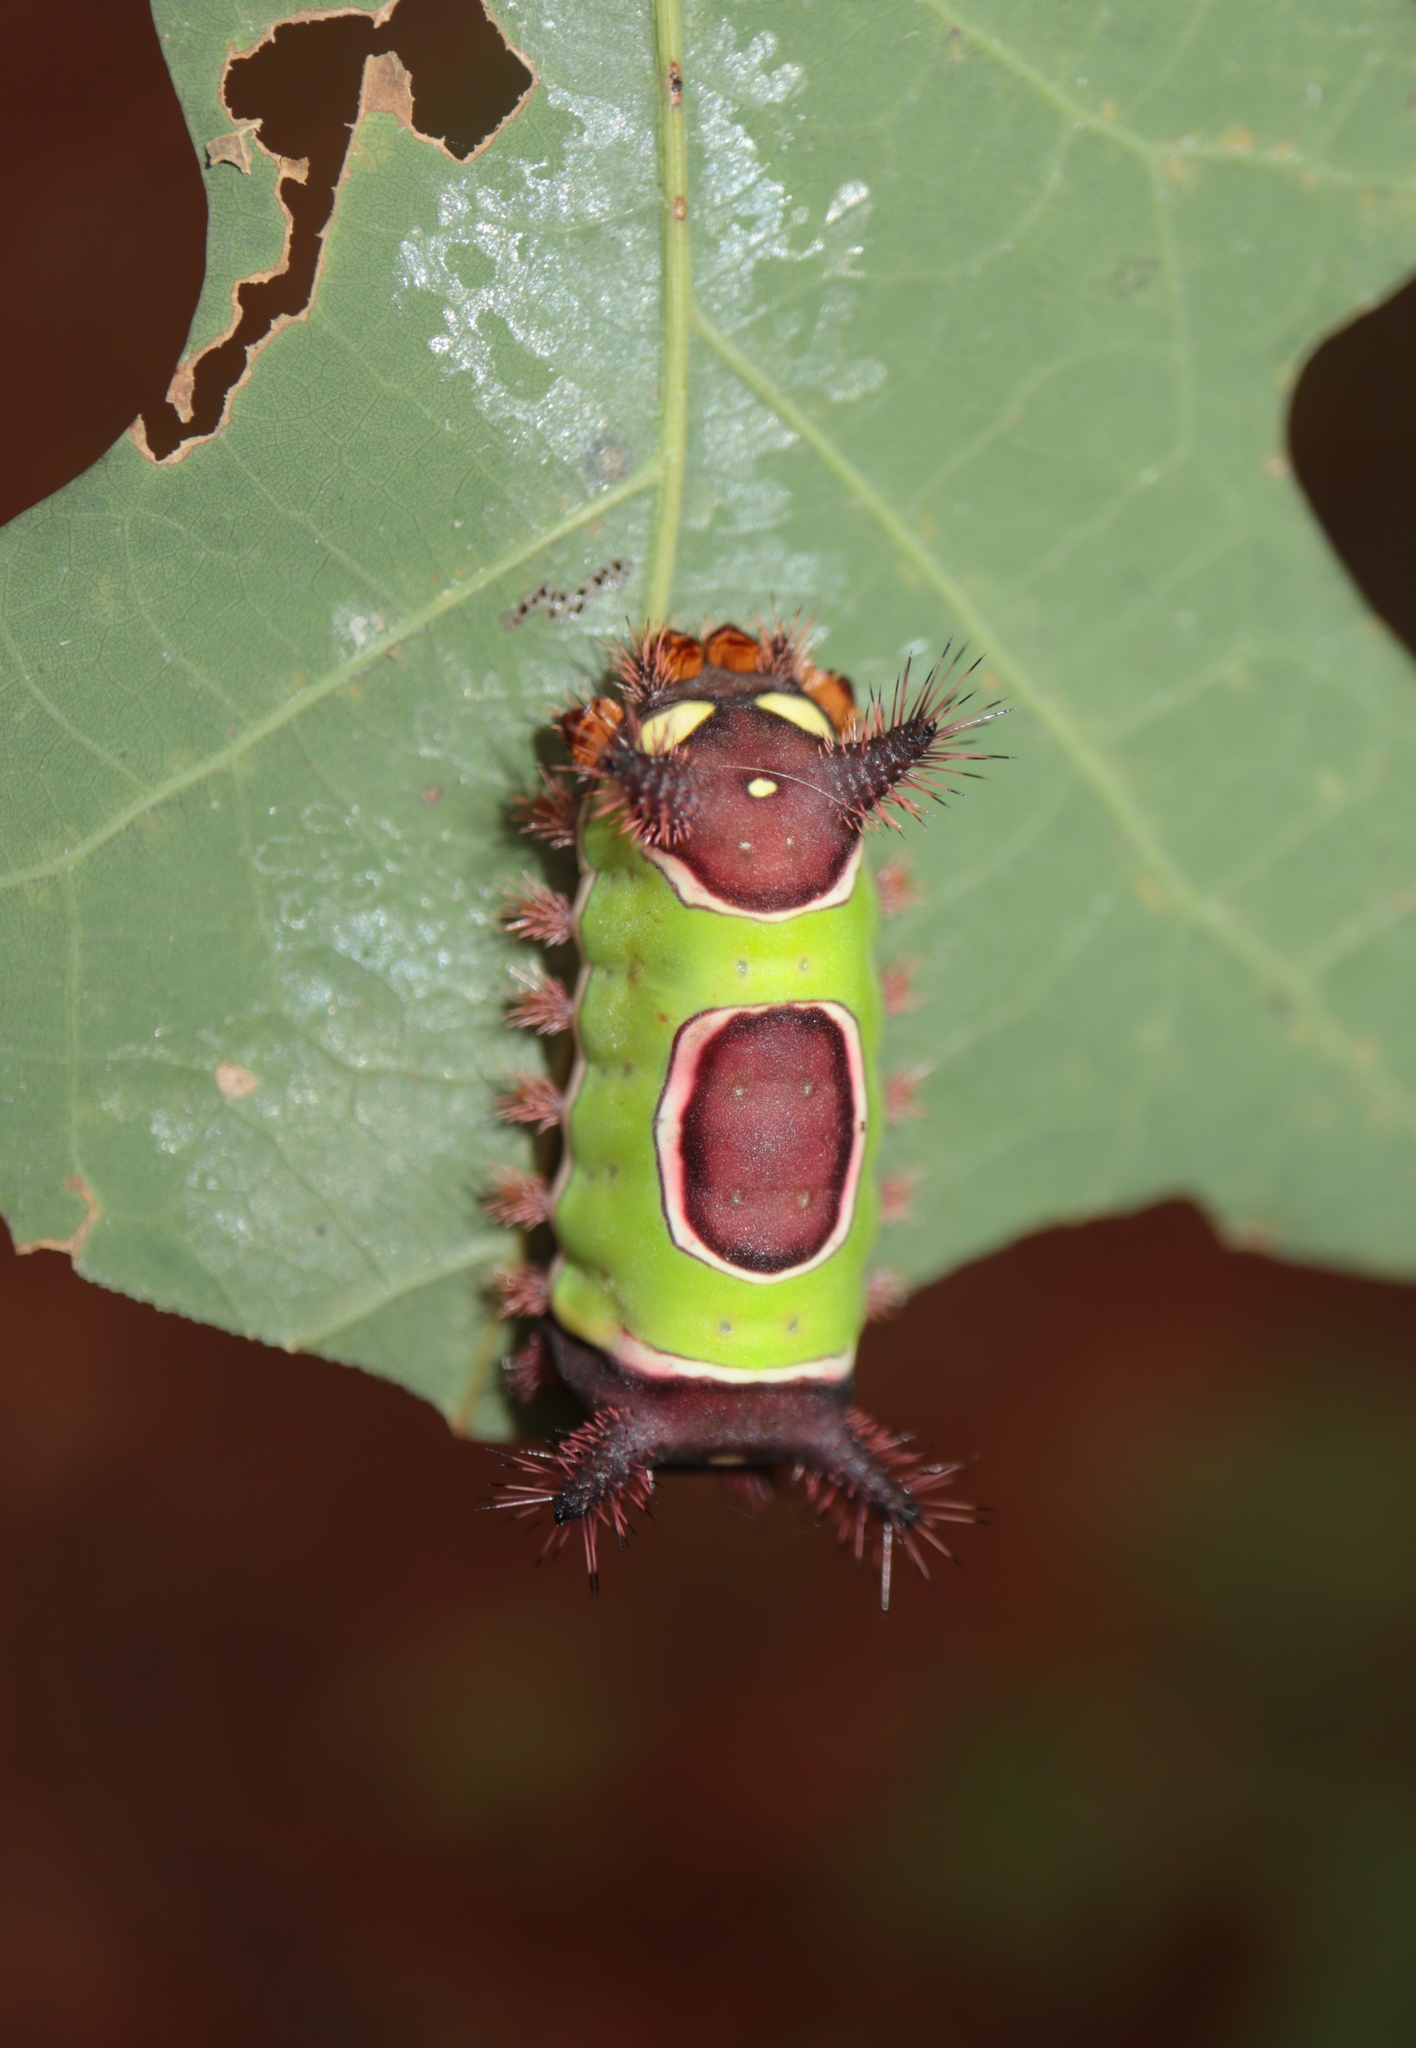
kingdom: Animalia
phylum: Arthropoda
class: Insecta
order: Lepidoptera
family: Limacodidae
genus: Acharia
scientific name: Acharia stimulea
